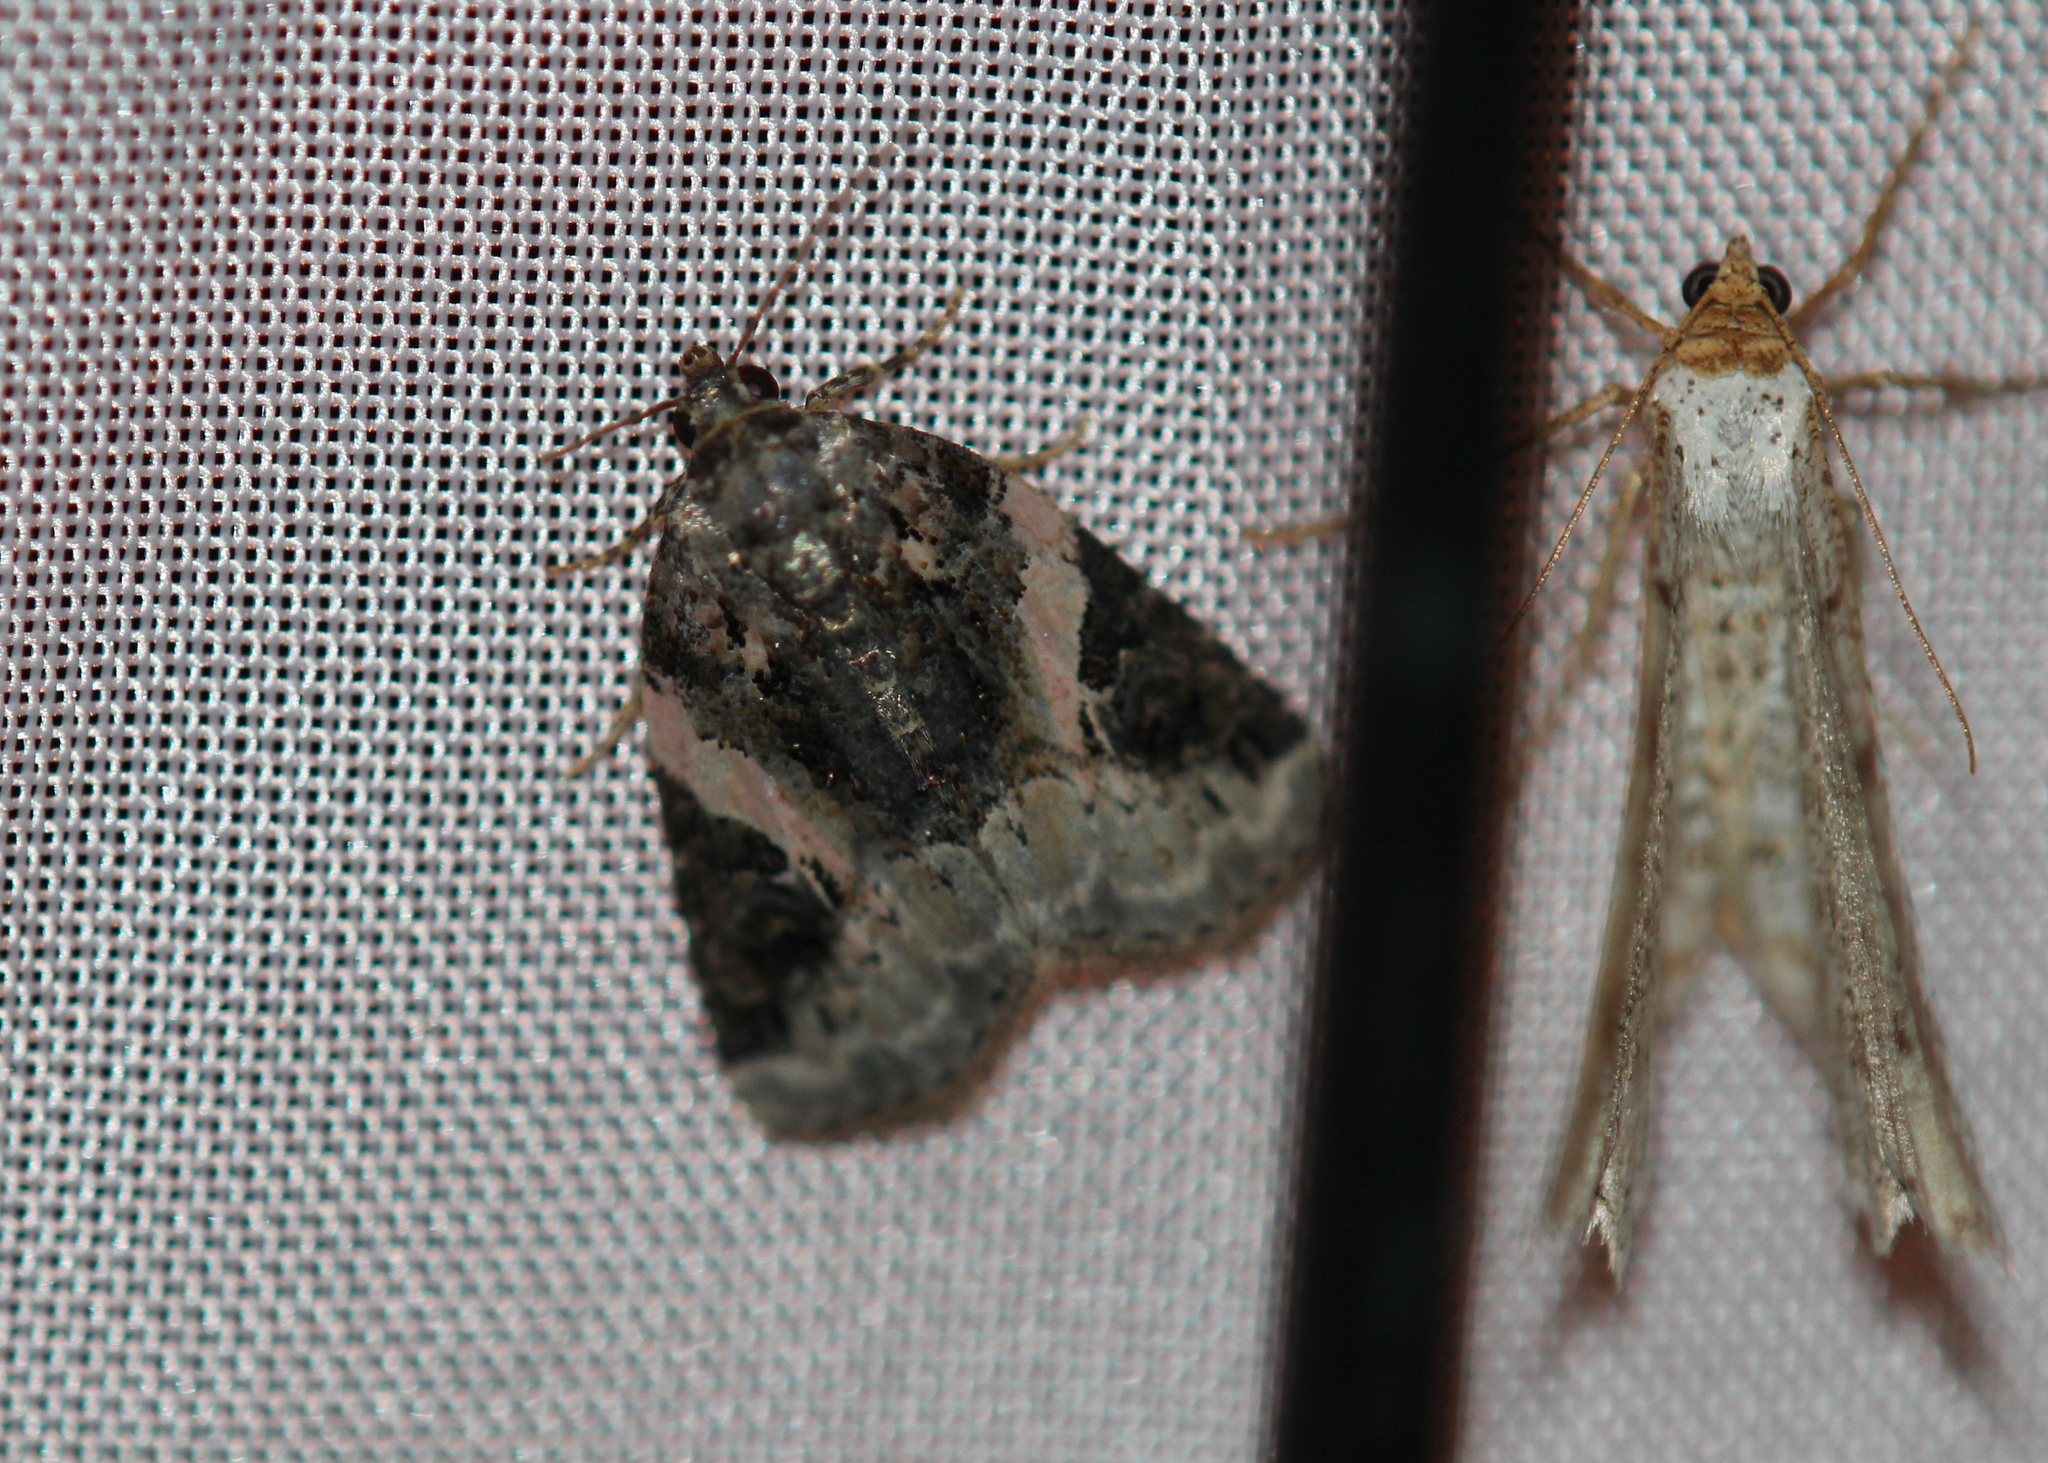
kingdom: Animalia
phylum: Arthropoda
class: Insecta
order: Lepidoptera
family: Noctuidae
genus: Pseudeustrotia
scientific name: Pseudeustrotia carneola
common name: Pink-barred lithacodia moth
